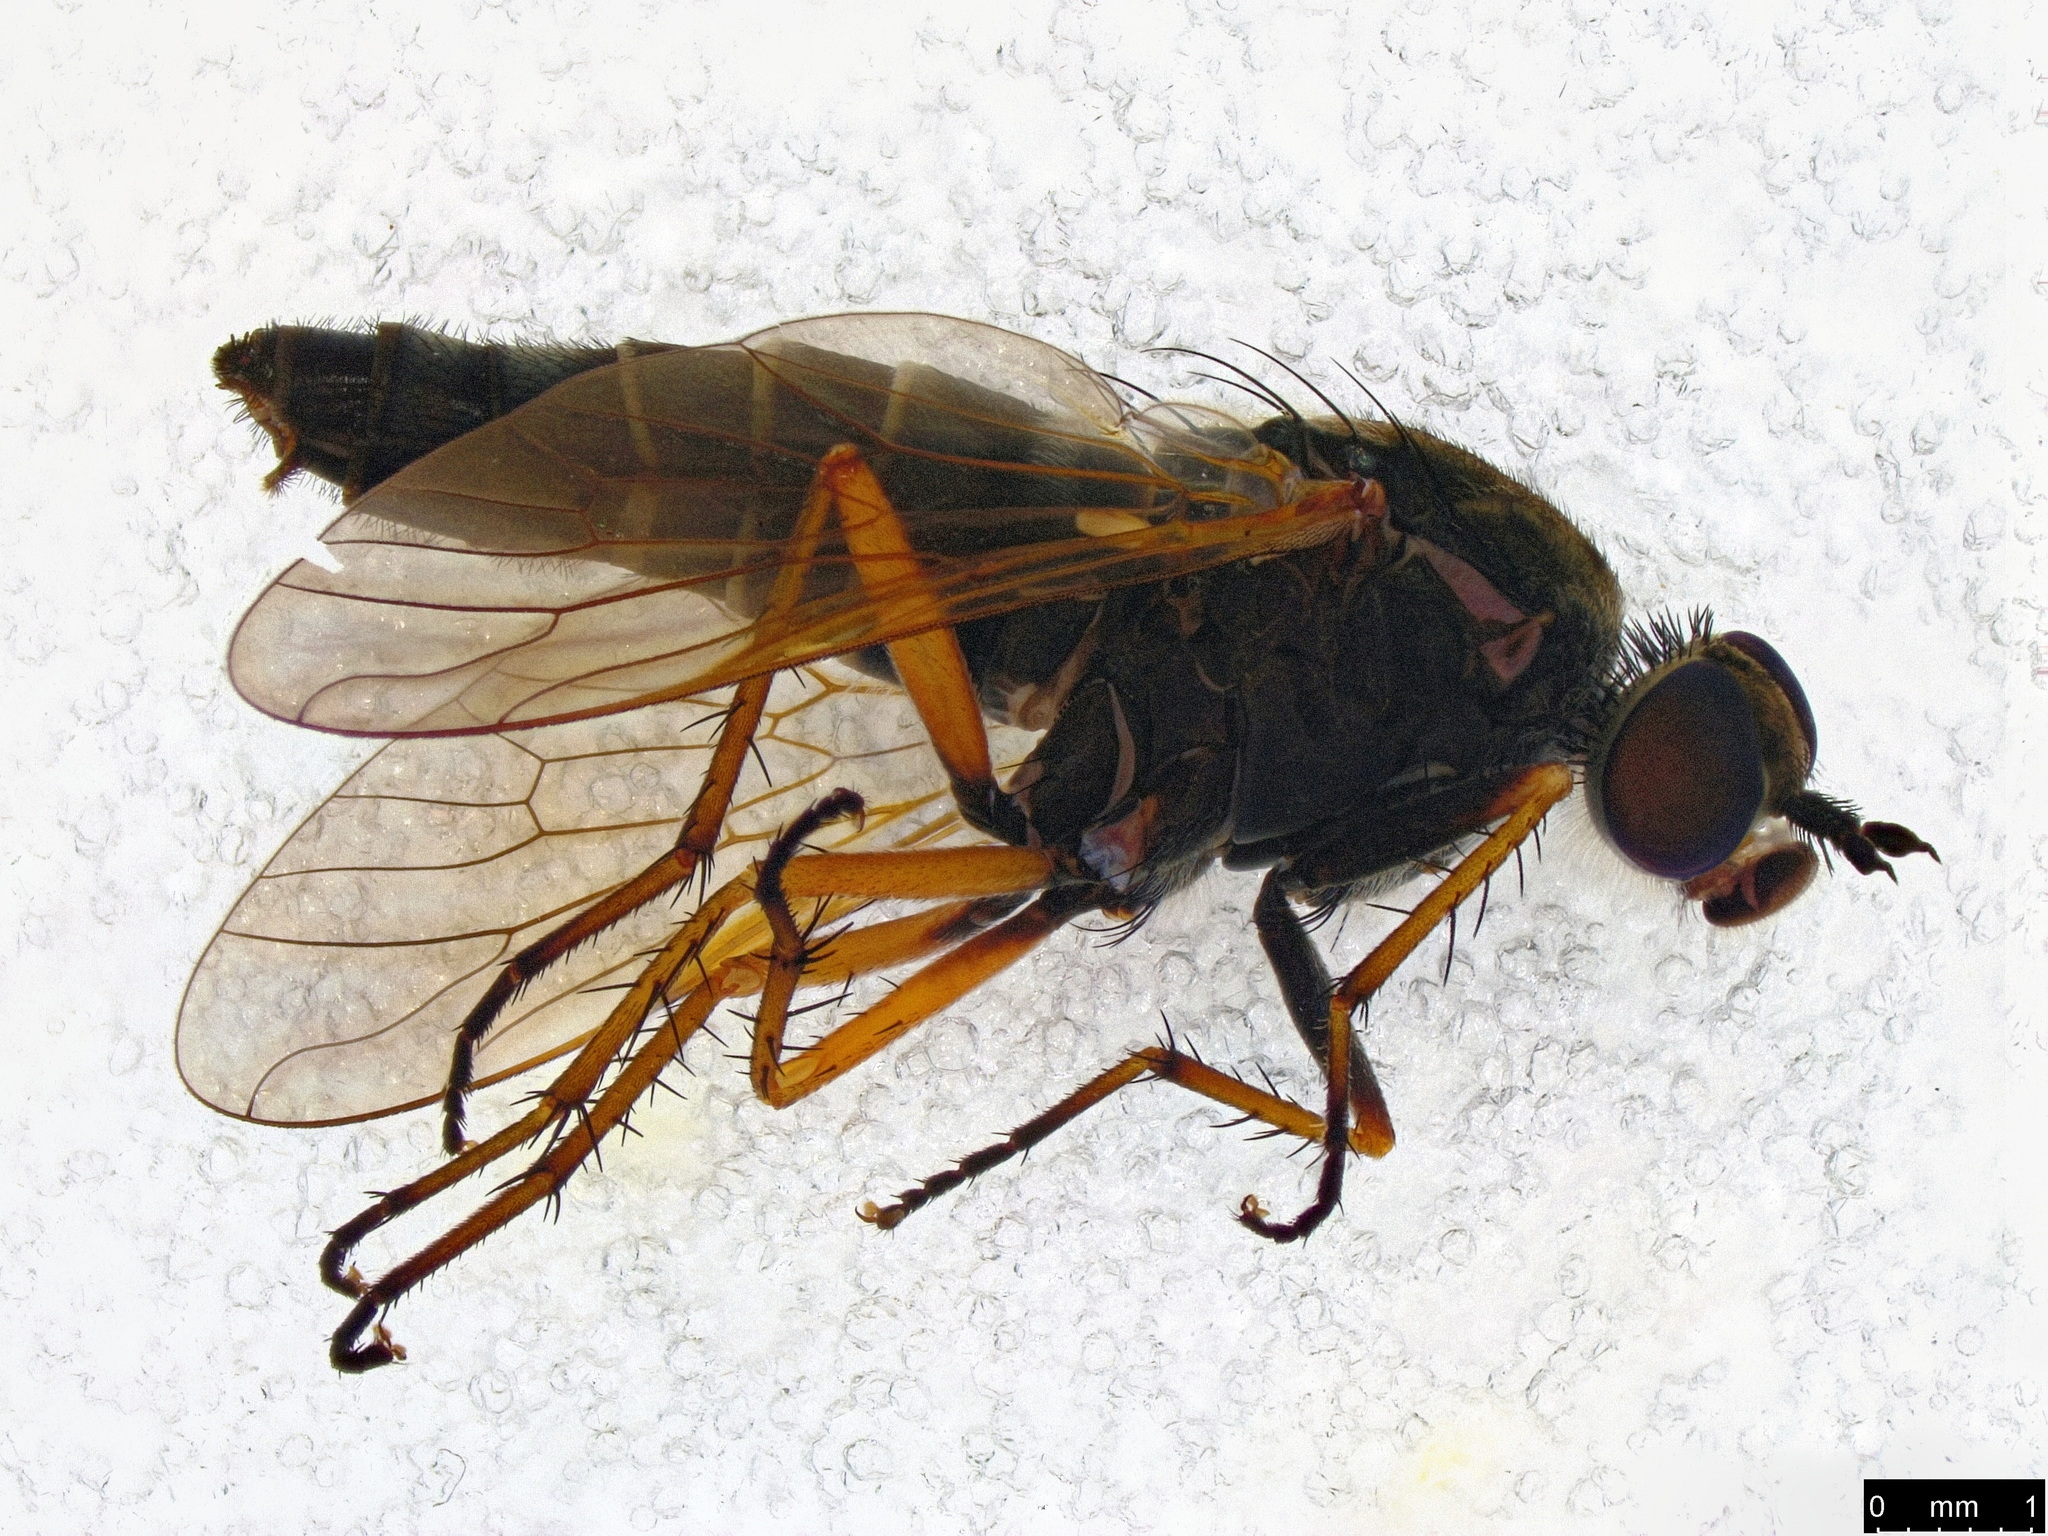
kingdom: Animalia
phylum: Arthropoda
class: Insecta
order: Diptera
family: Therevidae
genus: Anabarhynchus
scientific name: Anabarhynchus plumbeoides
